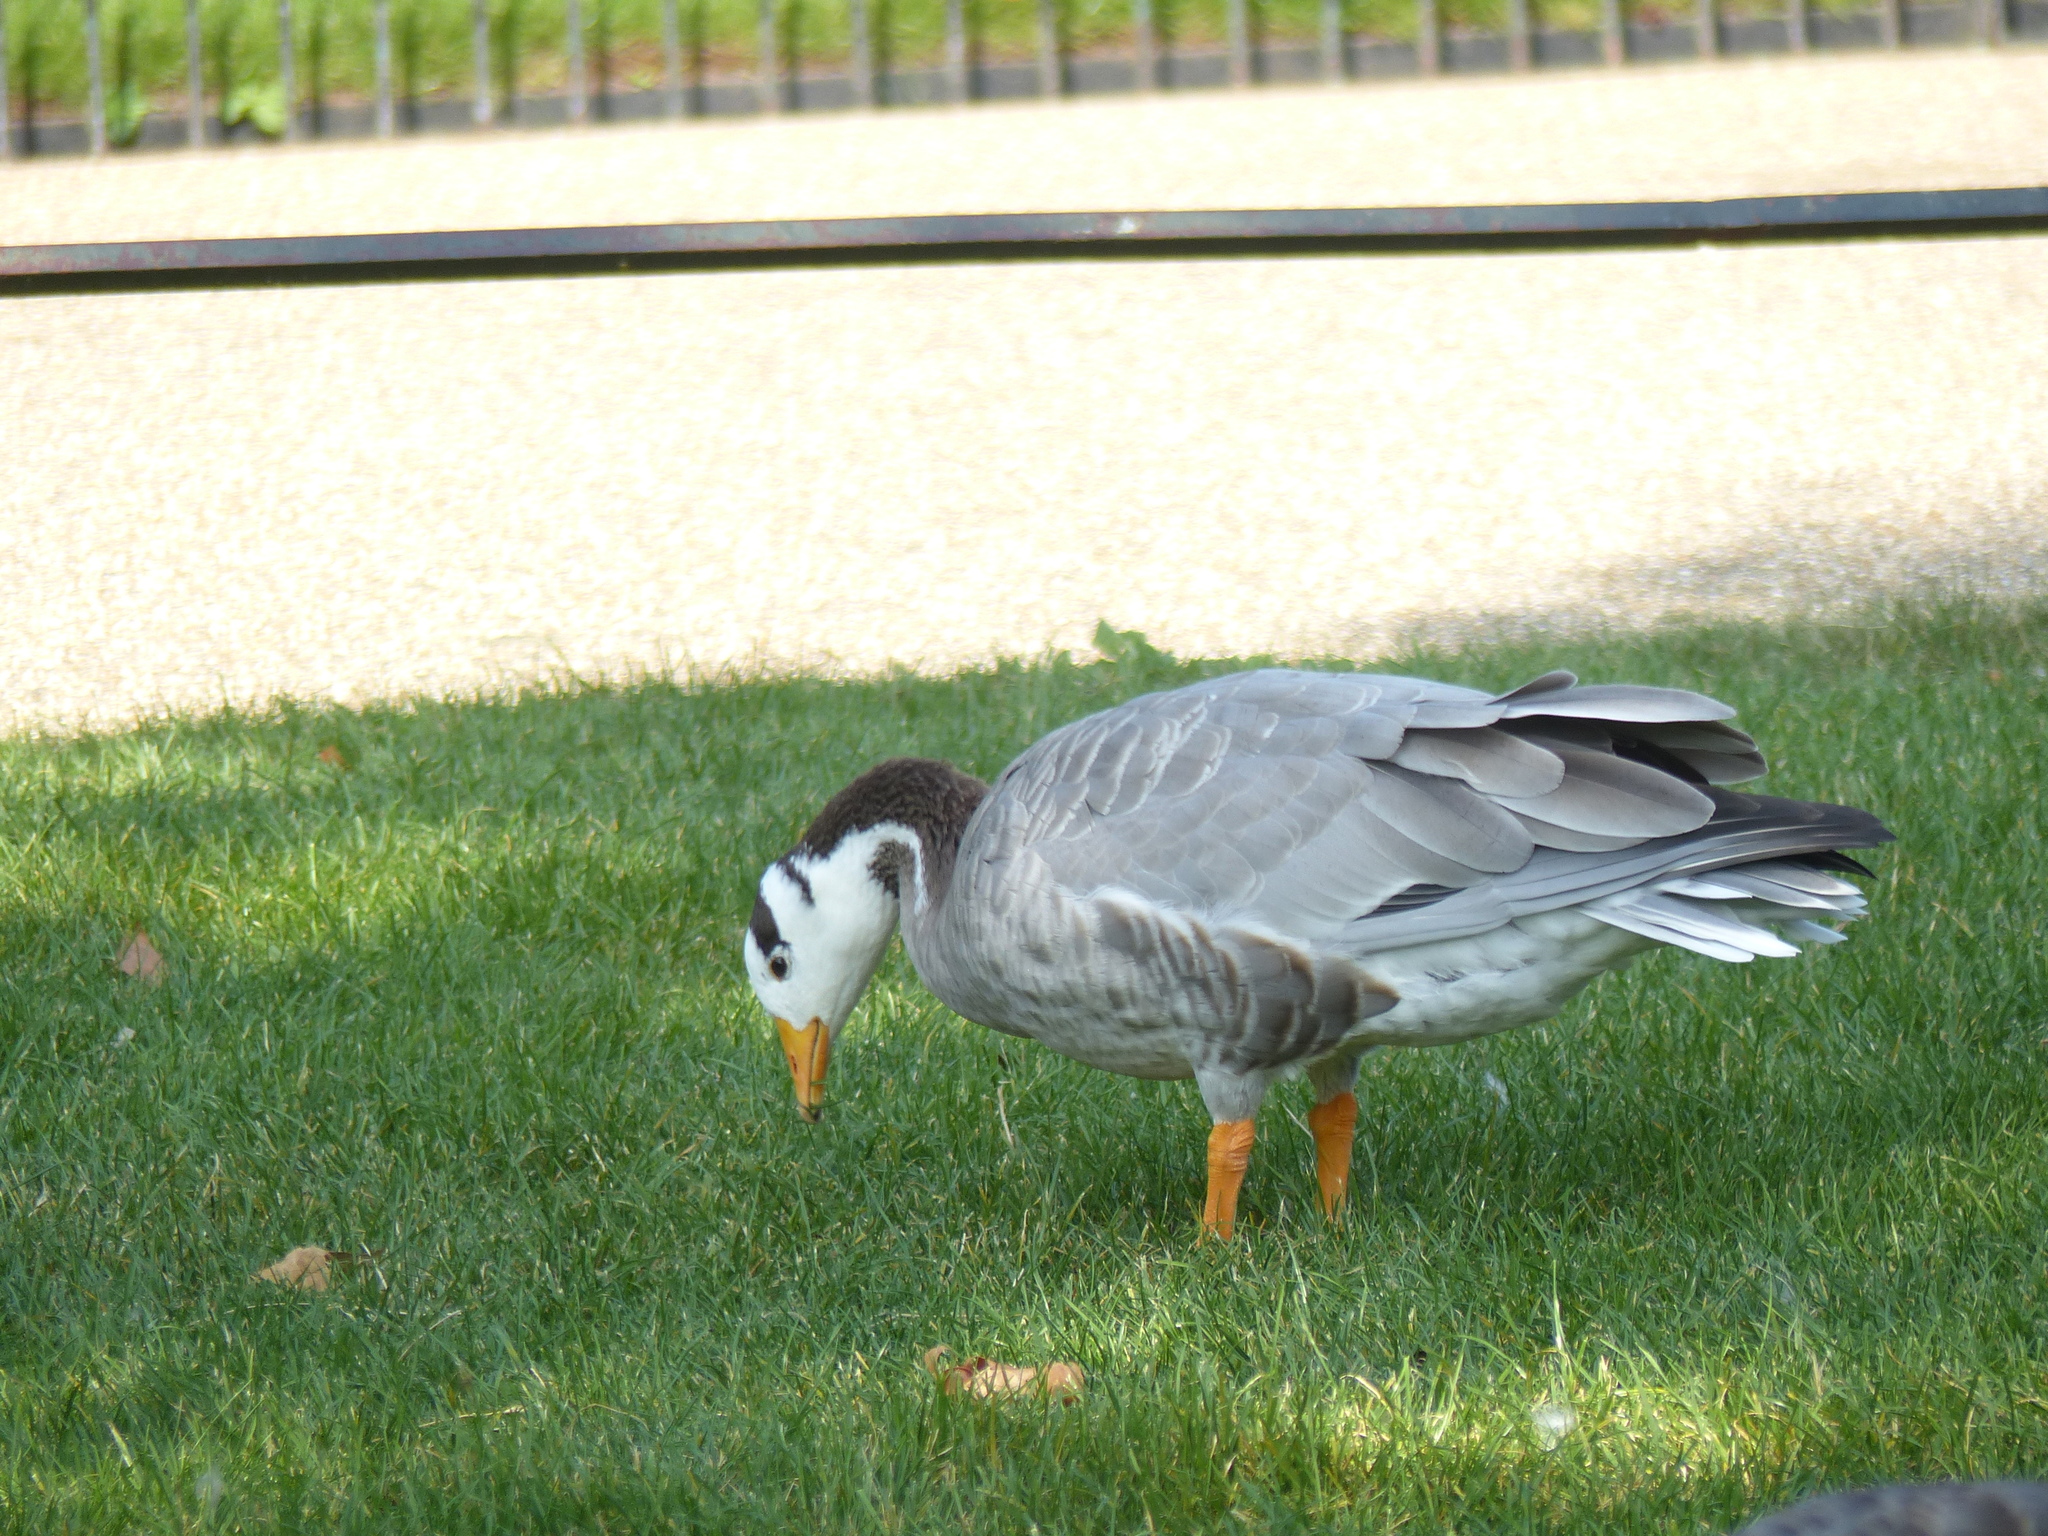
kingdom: Animalia
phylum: Chordata
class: Aves
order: Anseriformes
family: Anatidae
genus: Anser
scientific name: Anser indicus
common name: Bar-headed goose
